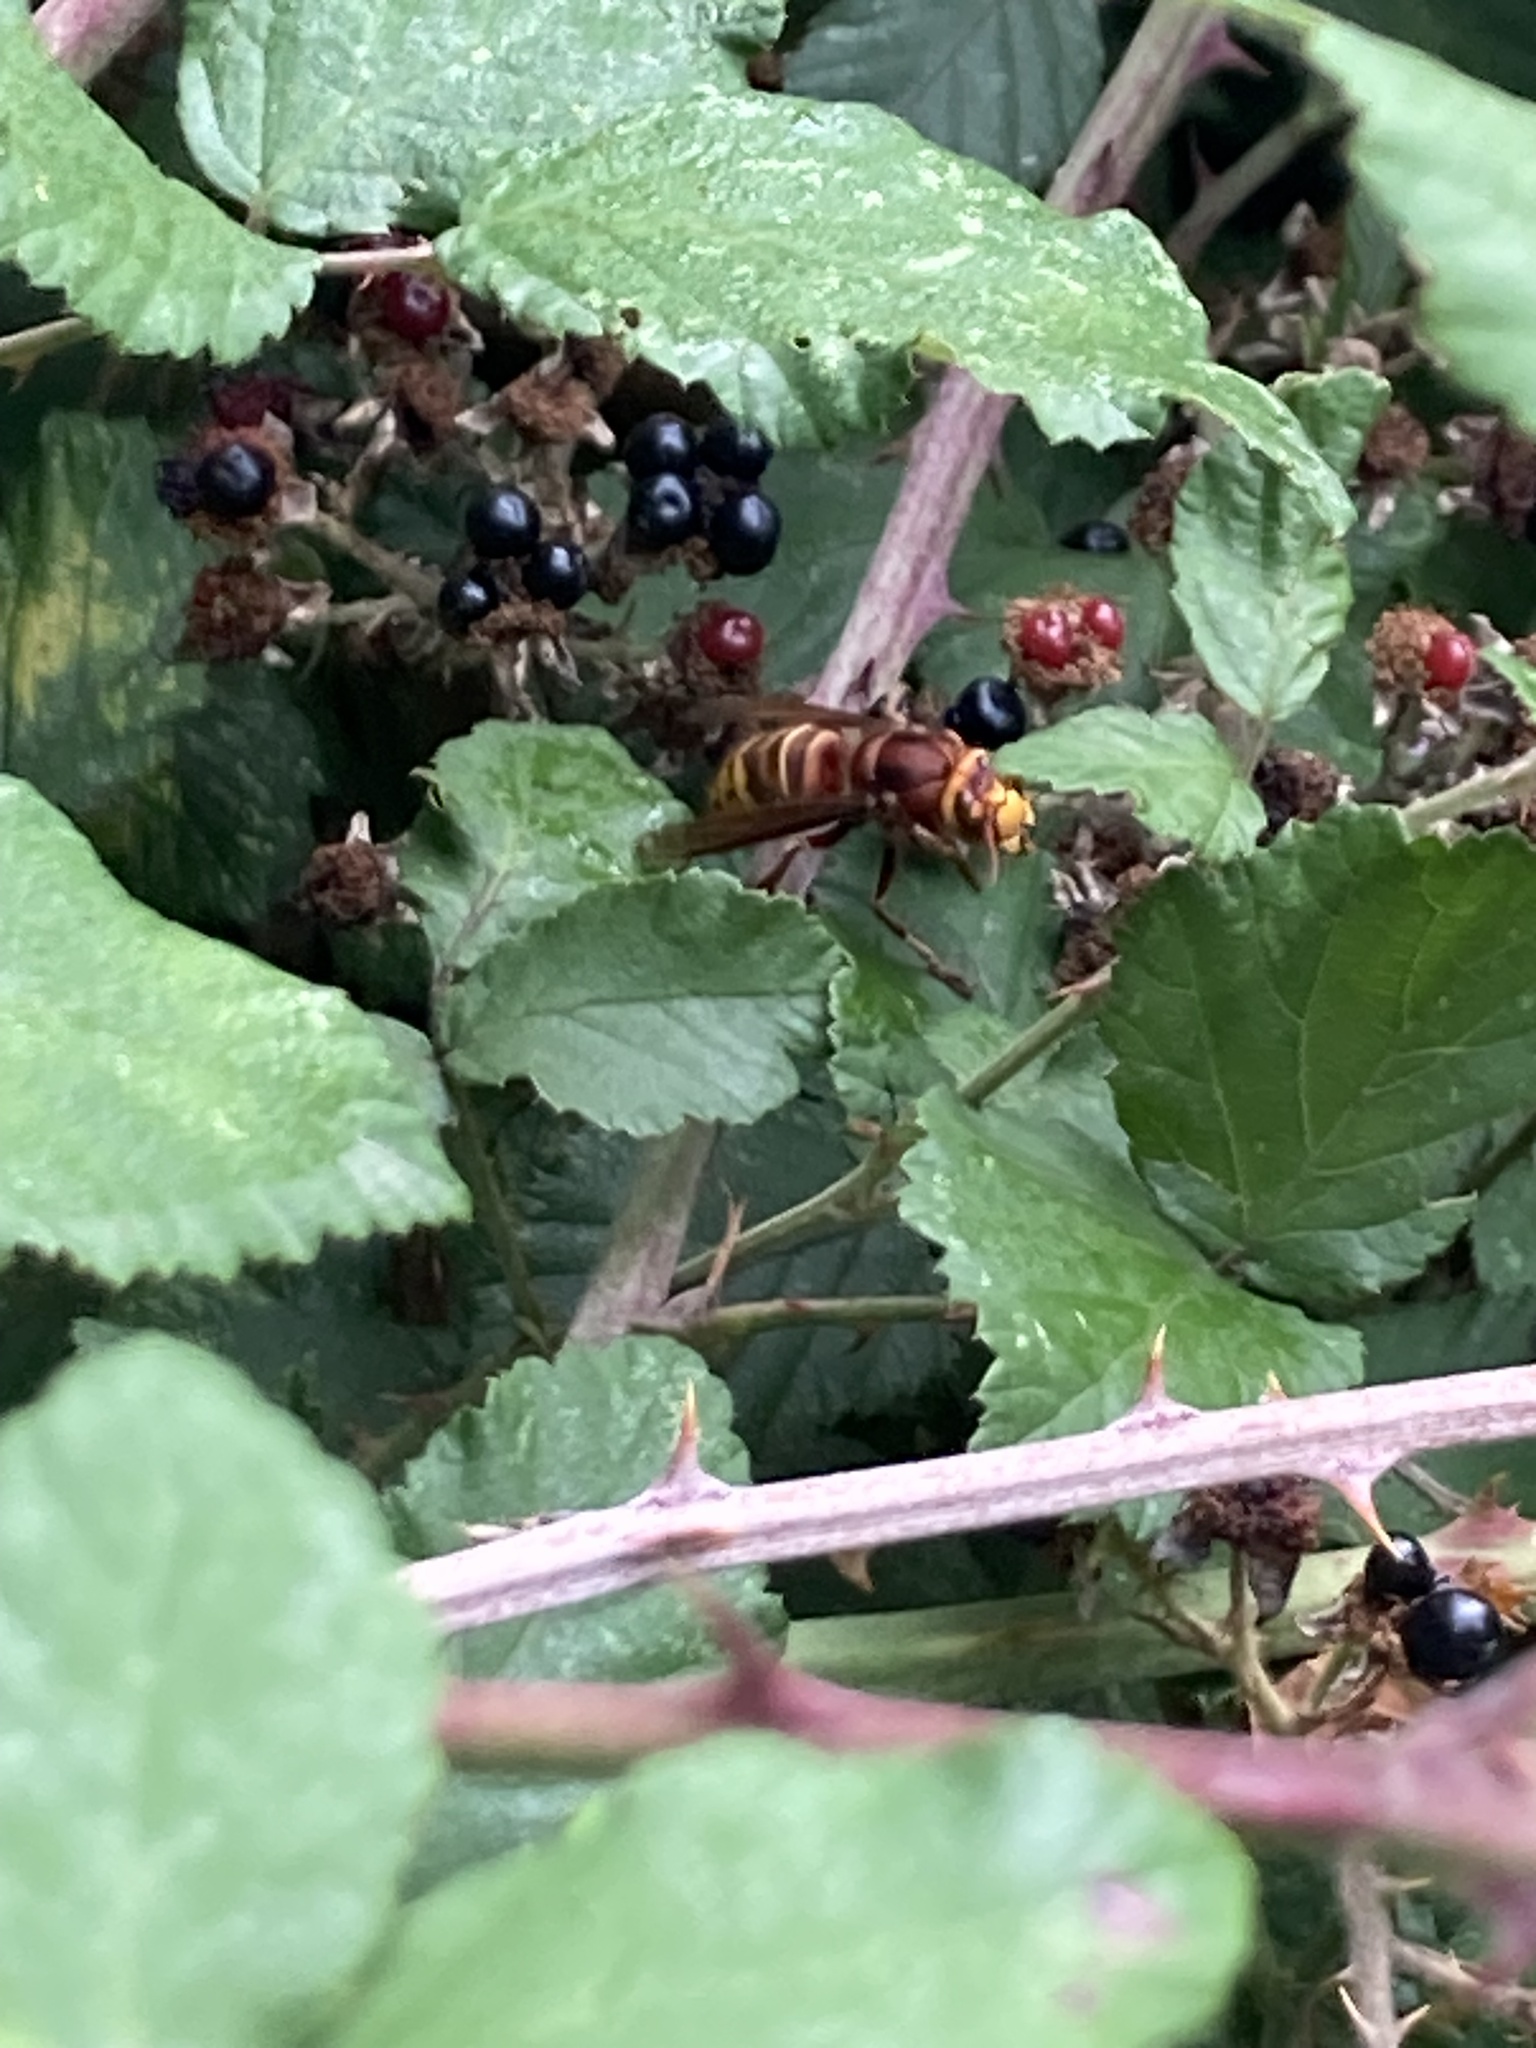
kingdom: Animalia
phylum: Arthropoda
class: Insecta
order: Hymenoptera
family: Vespidae
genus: Vespa
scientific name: Vespa crabro
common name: Hornet
